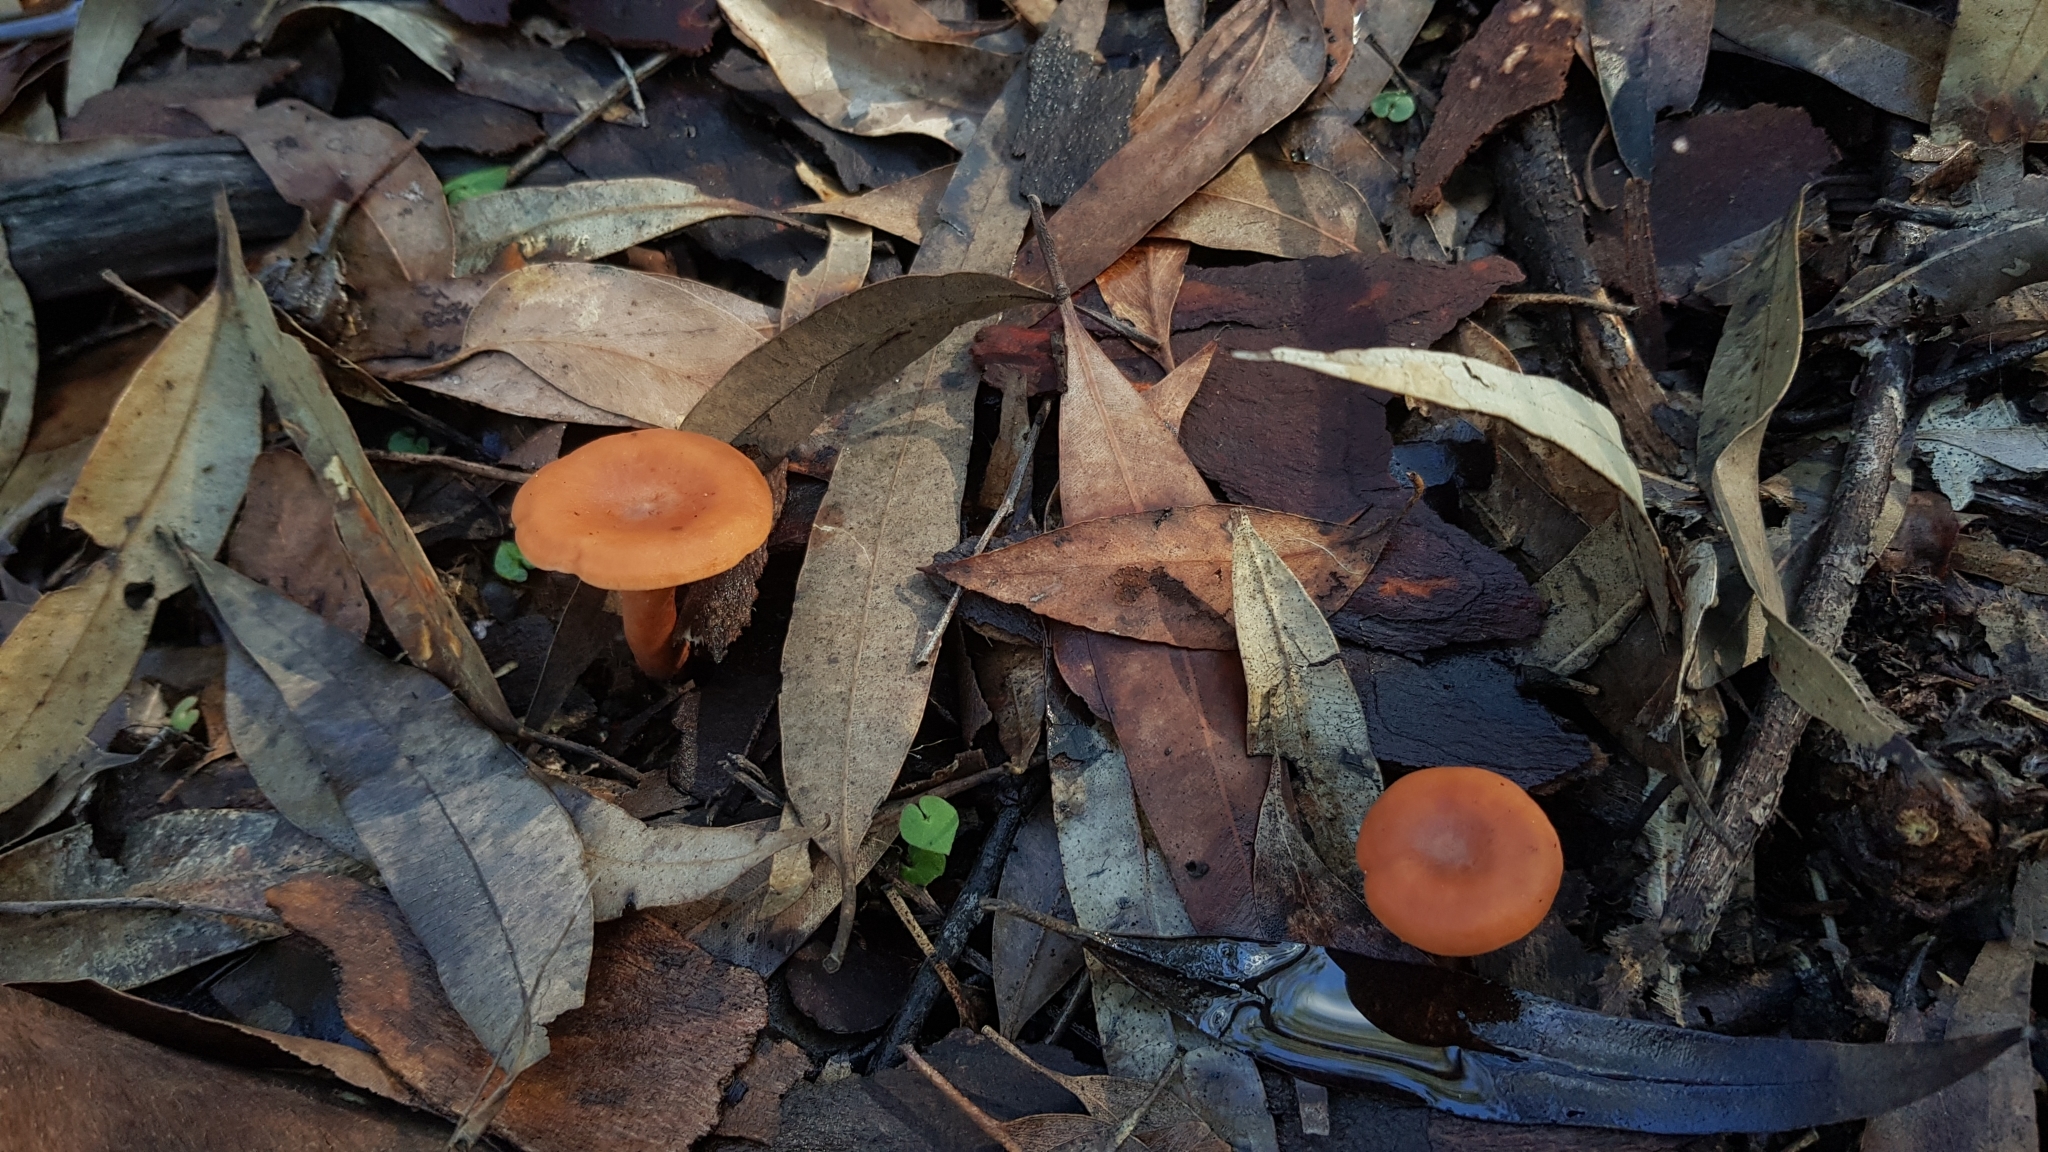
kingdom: Fungi
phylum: Basidiomycota
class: Agaricomycetes
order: Russulales
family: Russulaceae
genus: Lactarius
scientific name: Lactarius eucalypti
